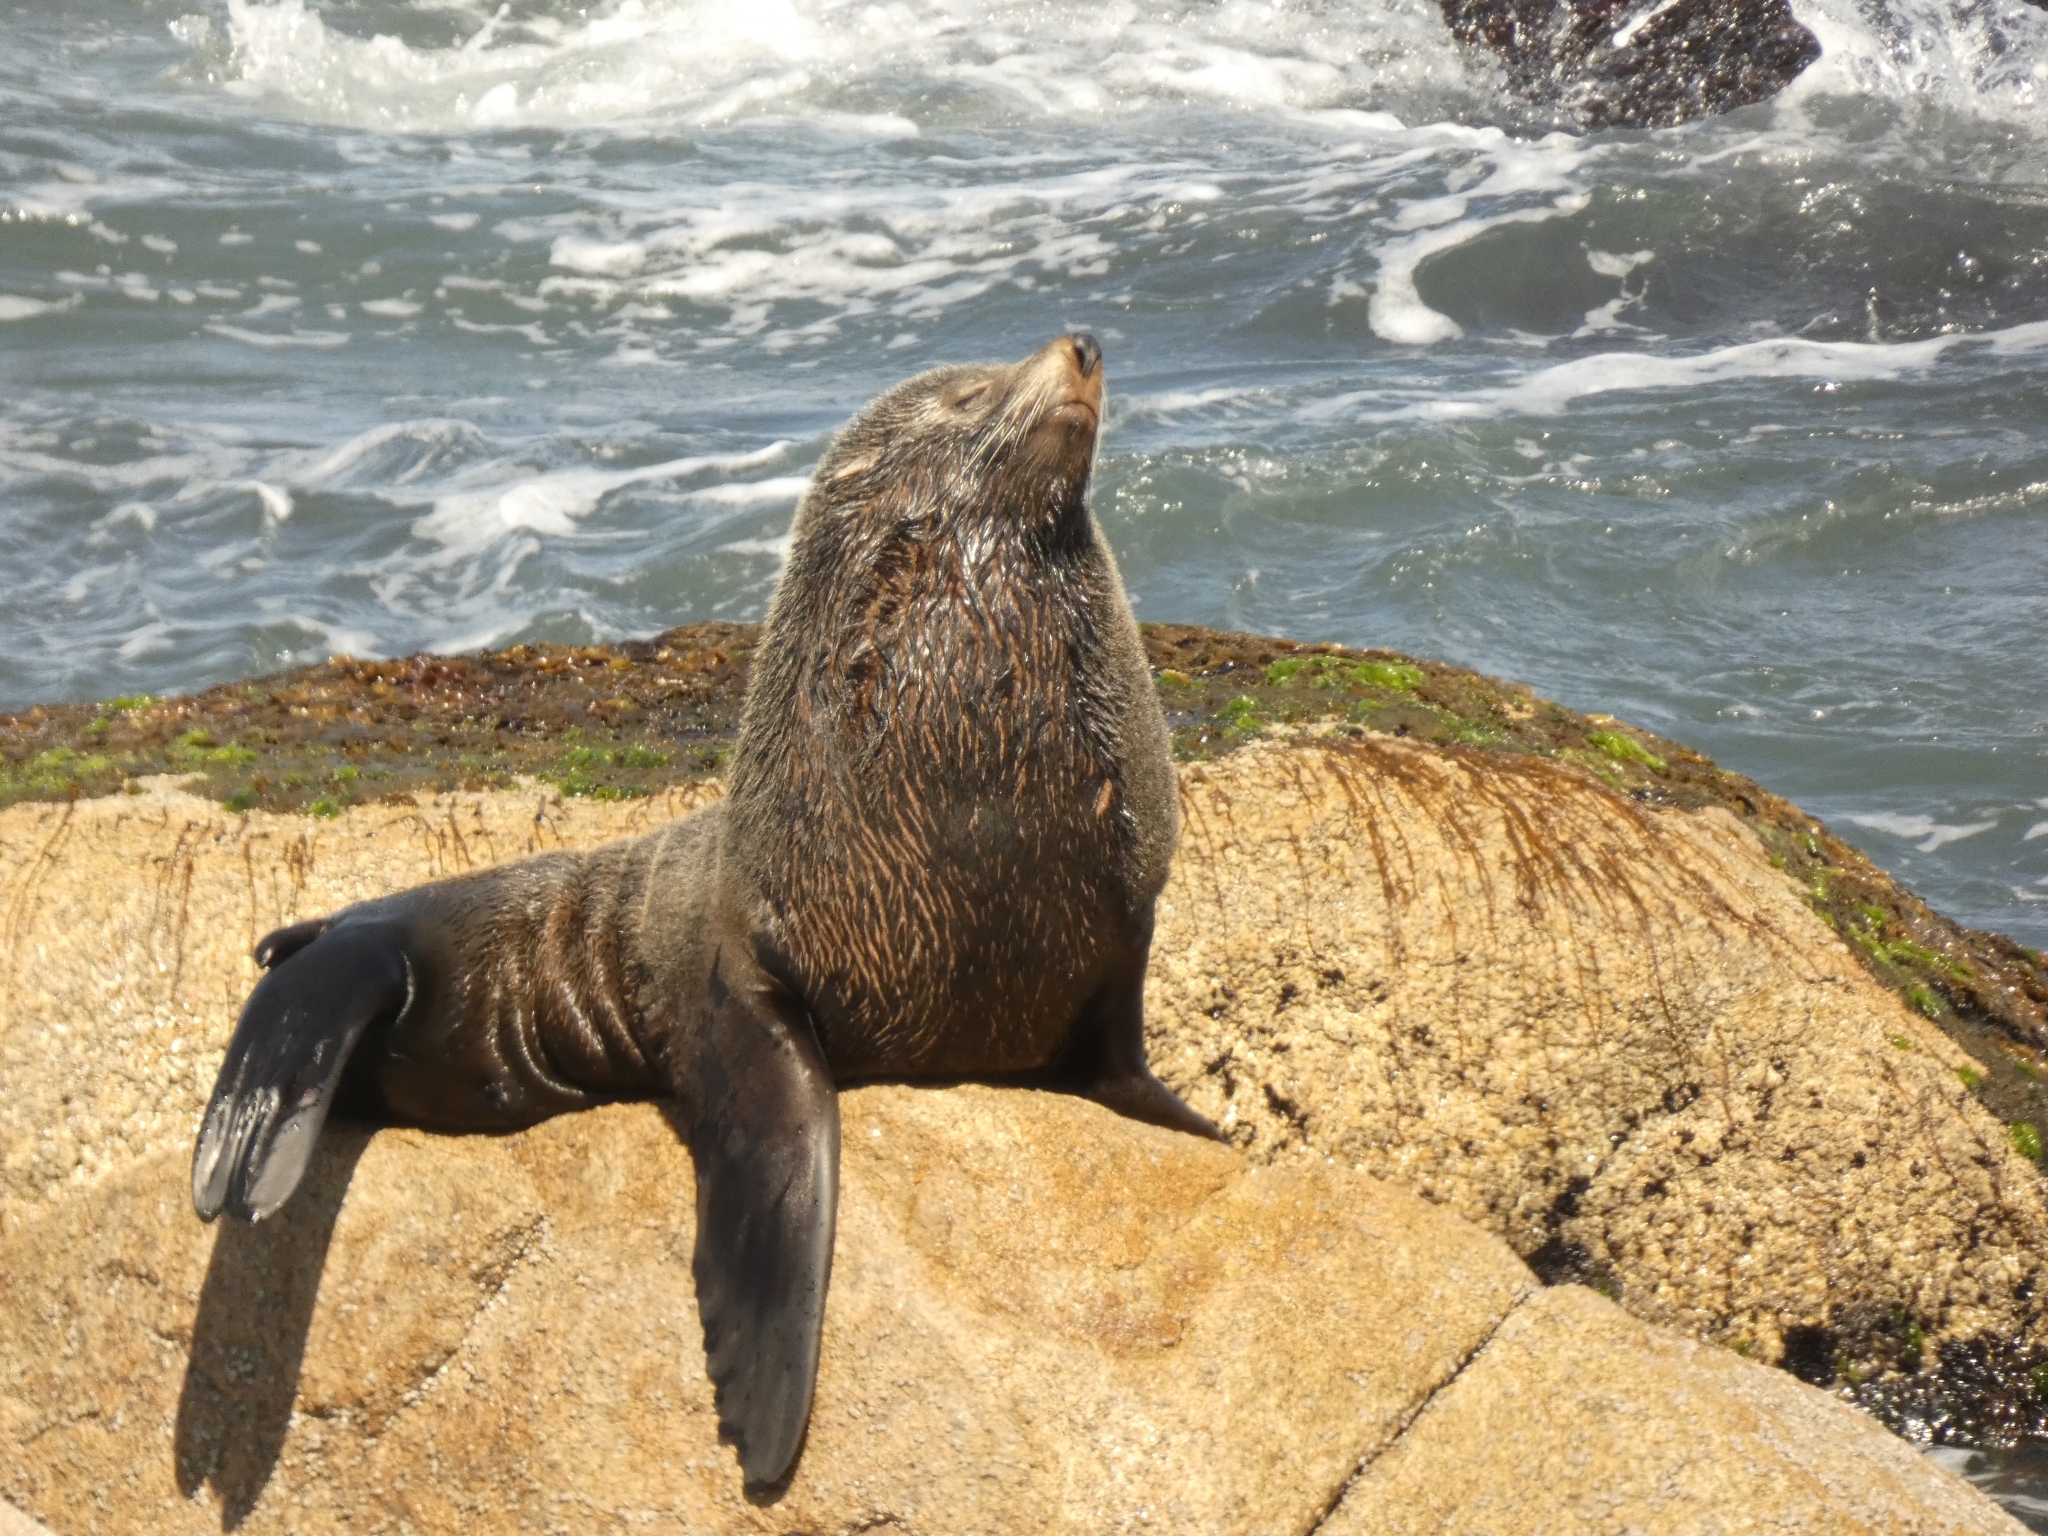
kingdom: Animalia
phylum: Chordata
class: Mammalia
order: Carnivora
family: Otariidae
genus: Arctocephalus
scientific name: Arctocephalus australis
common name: South american fur seal
